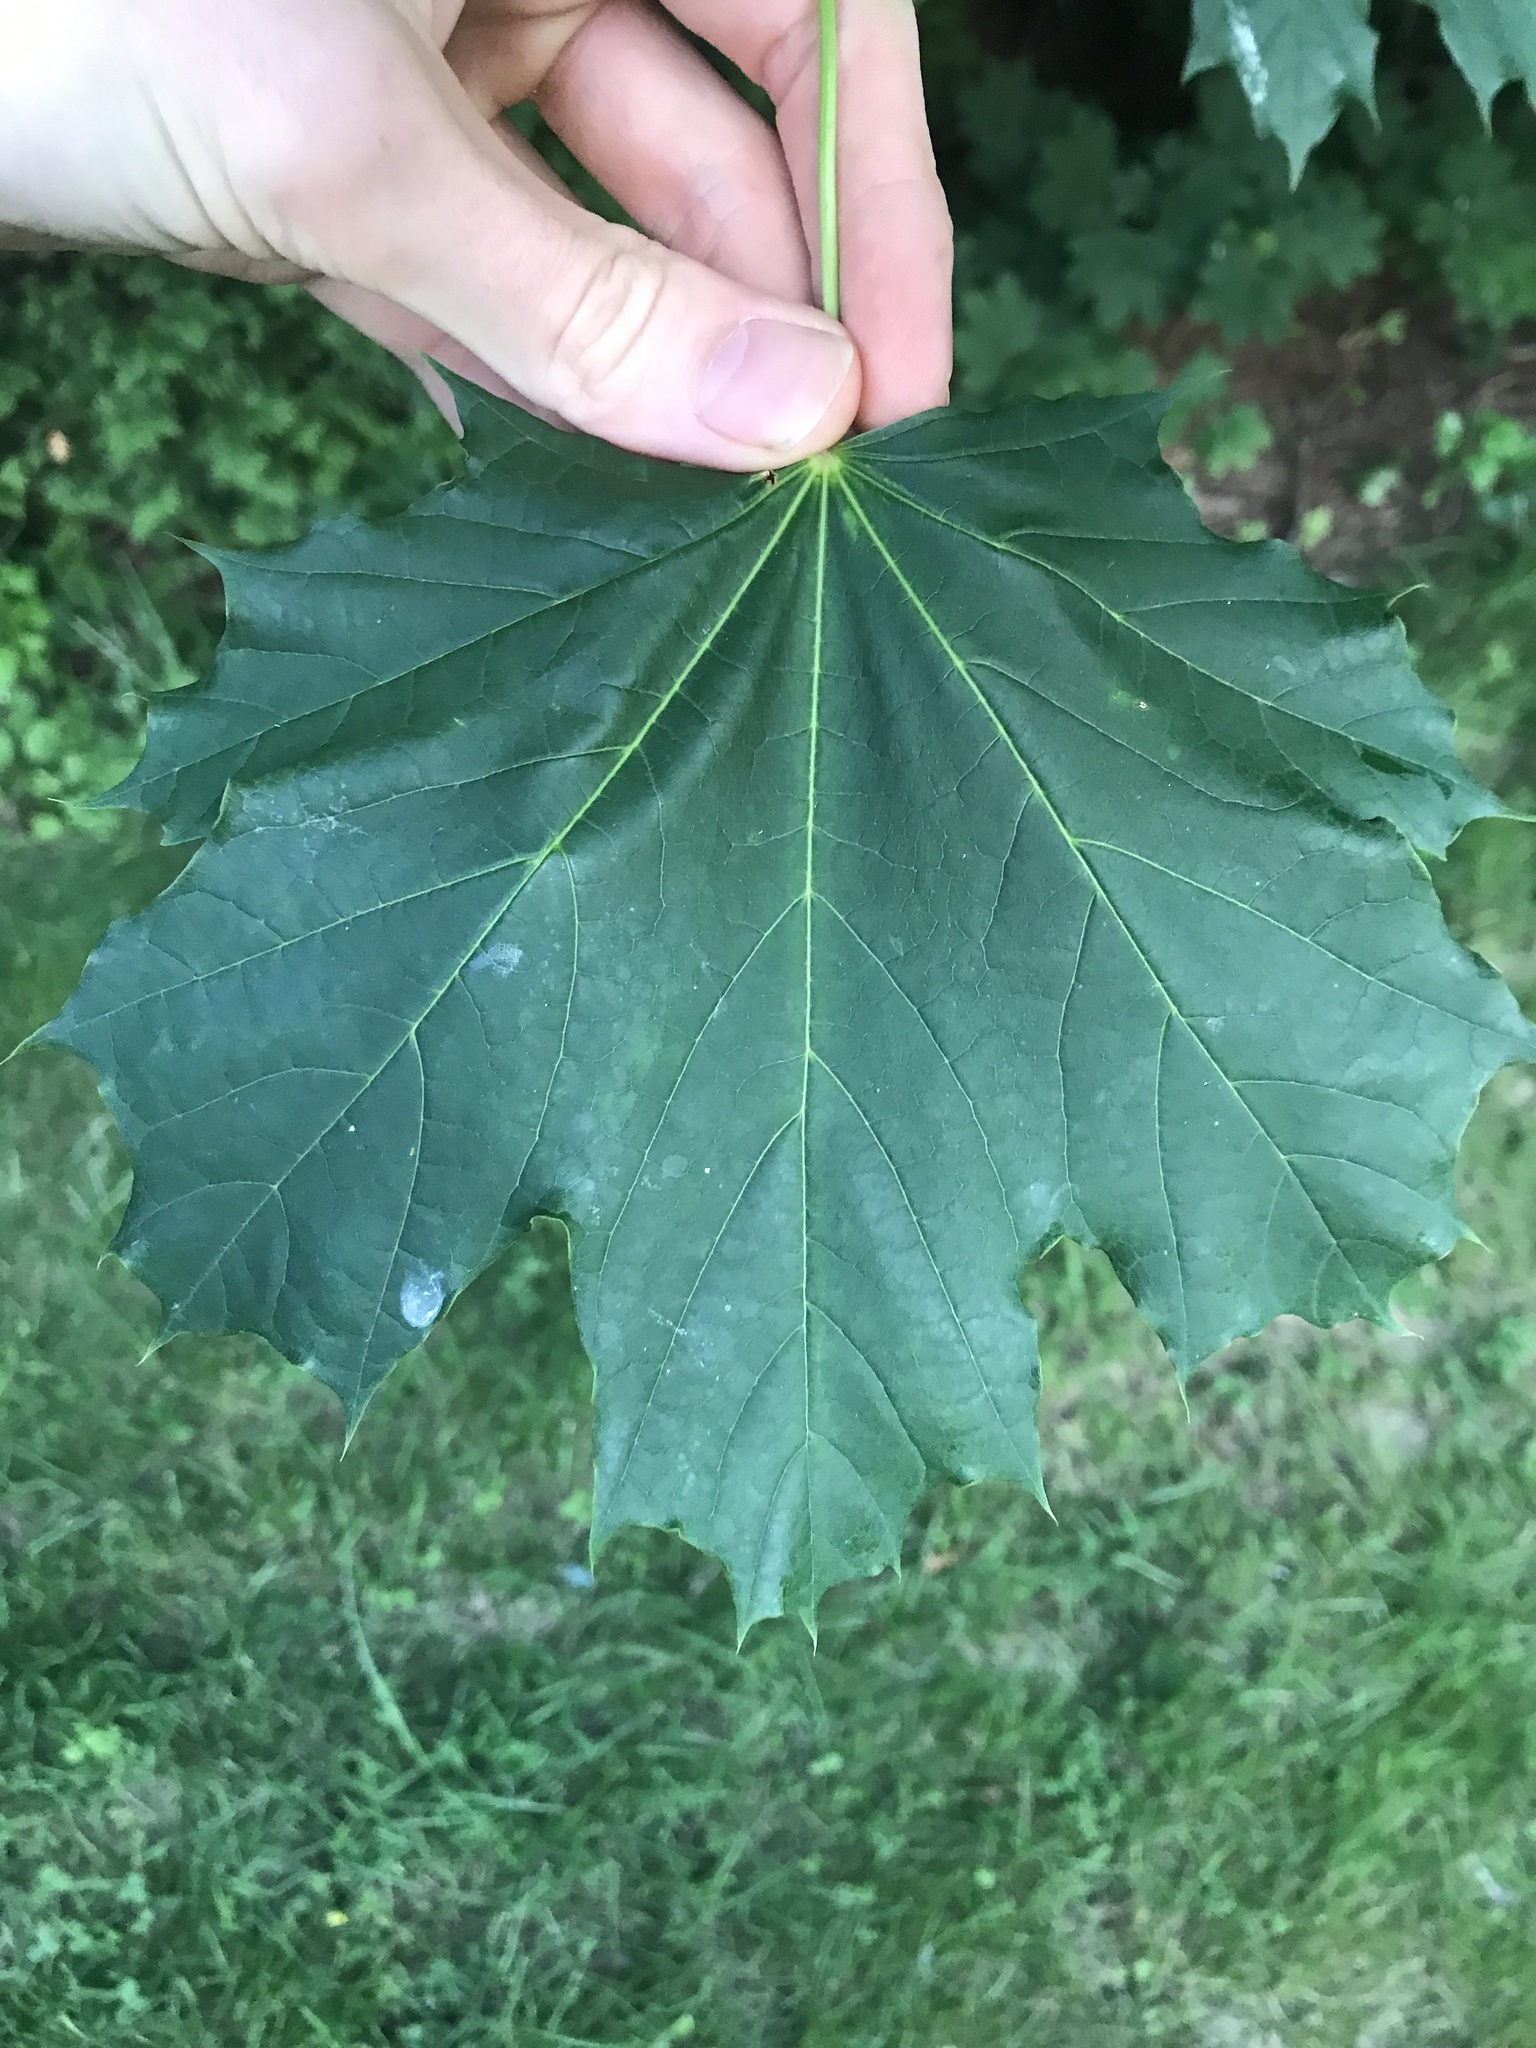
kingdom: Plantae
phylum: Tracheophyta
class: Magnoliopsida
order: Sapindales
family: Sapindaceae
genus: Acer
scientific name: Acer platanoides
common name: Norway maple
